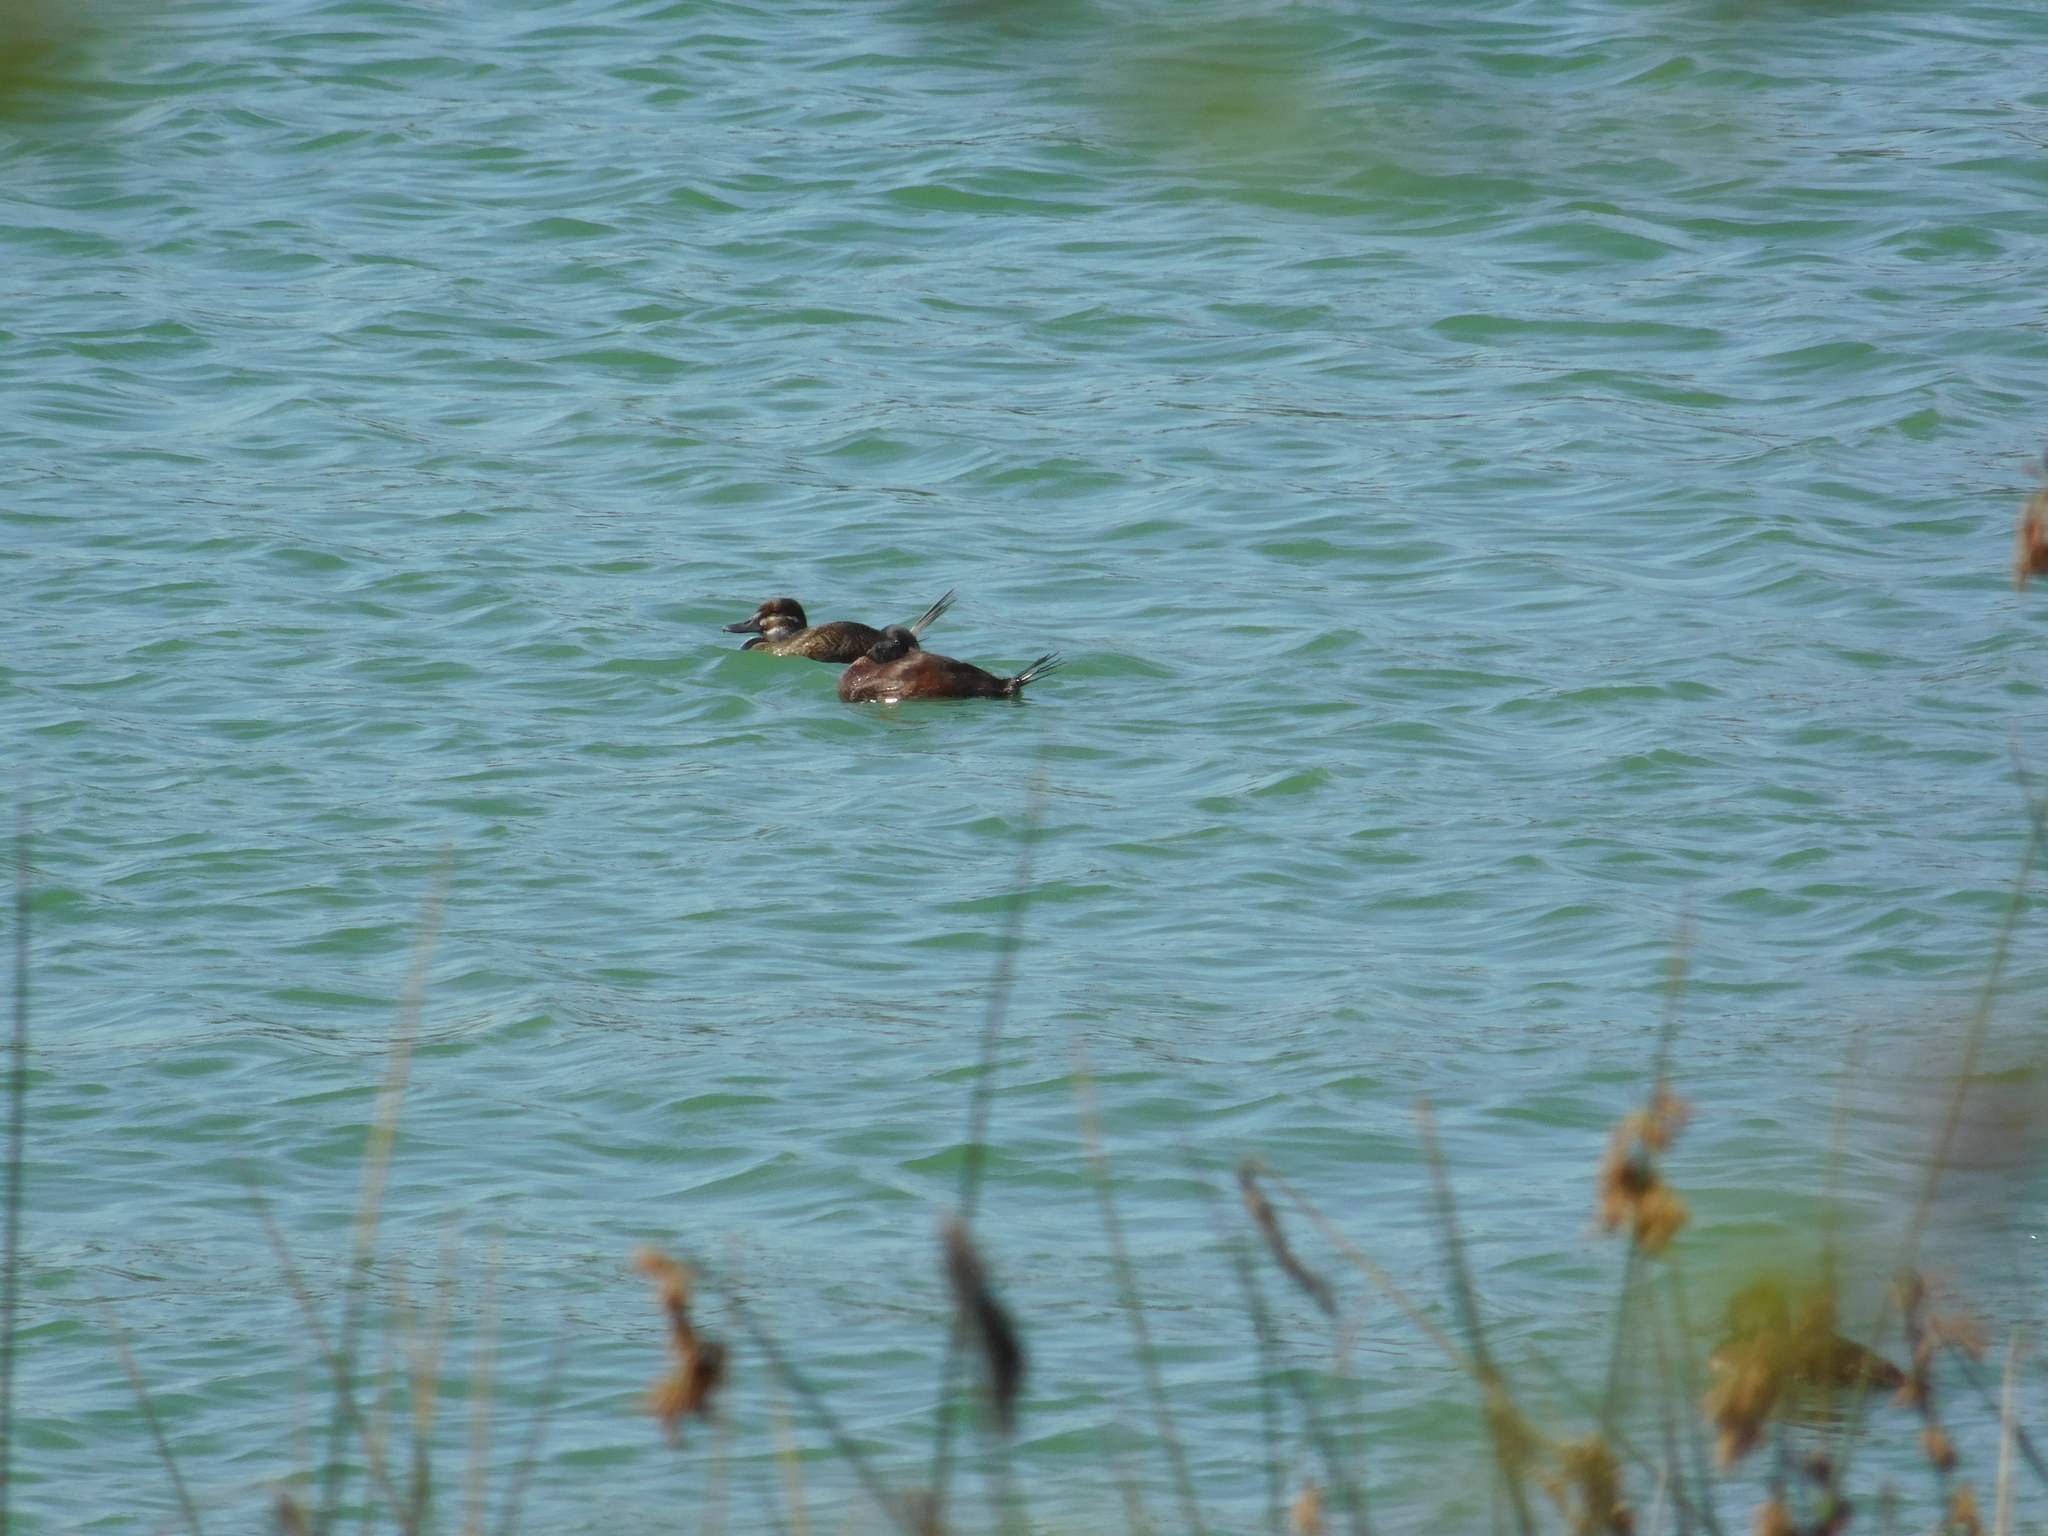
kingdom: Animalia
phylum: Chordata
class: Aves
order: Anseriformes
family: Anatidae
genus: Oxyura
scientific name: Oxyura vittata
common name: Lake duck
